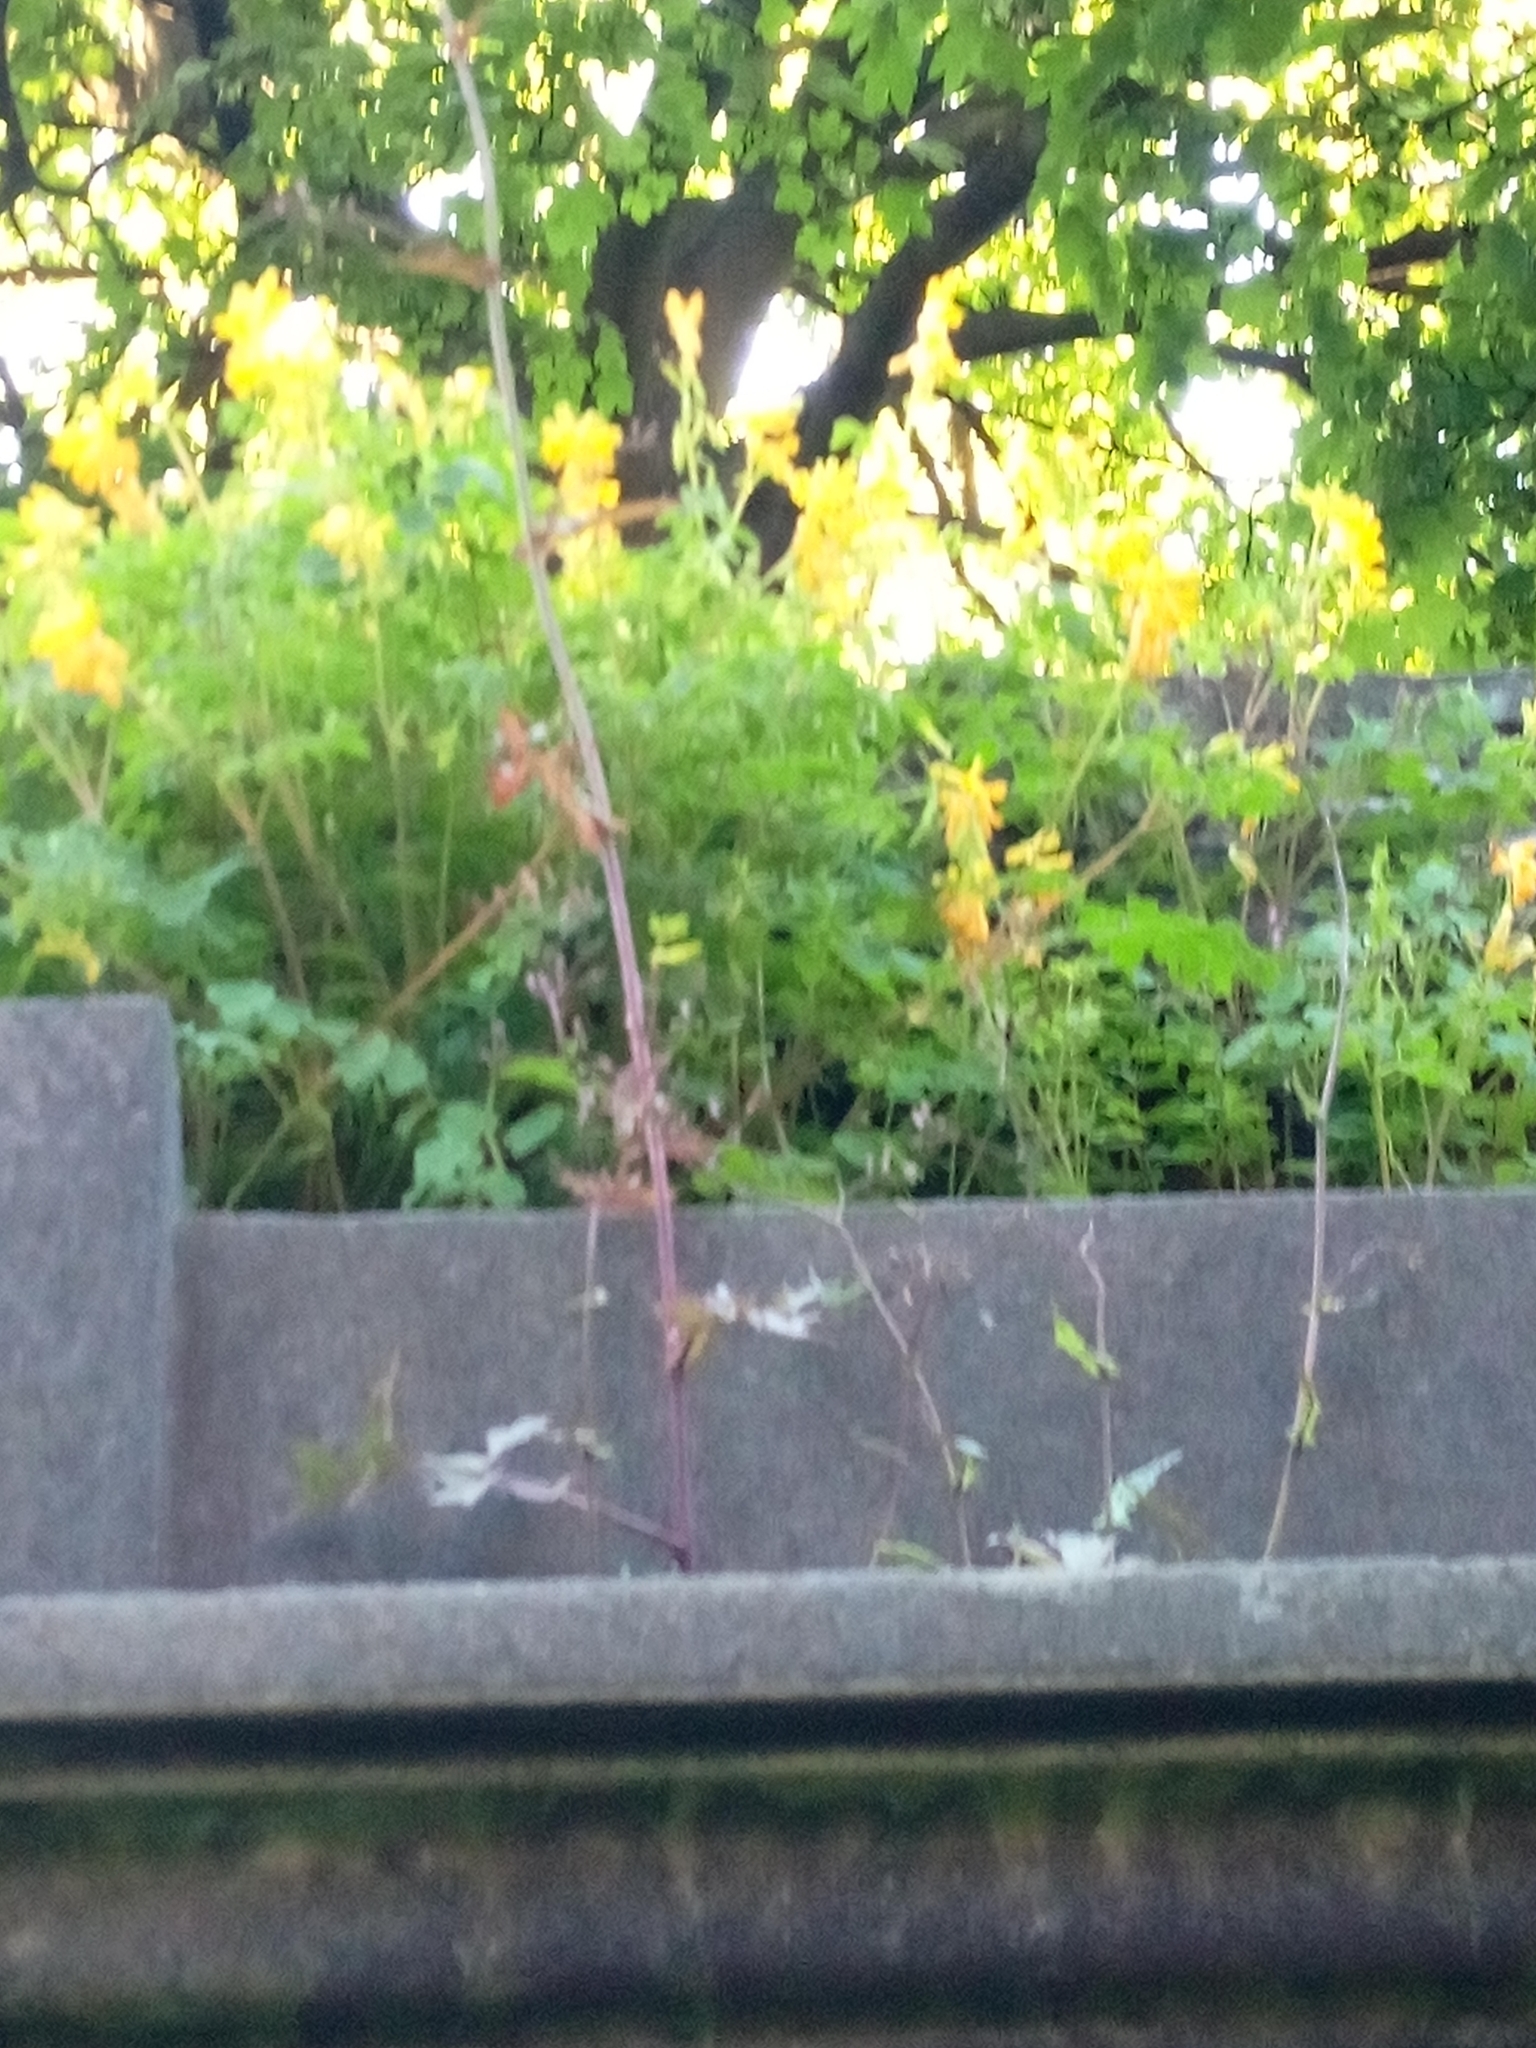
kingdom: Plantae
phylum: Tracheophyta
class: Magnoliopsida
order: Ranunculales
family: Papaveraceae
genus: Pseudofumaria
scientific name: Pseudofumaria lutea
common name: Yellow corydalis
